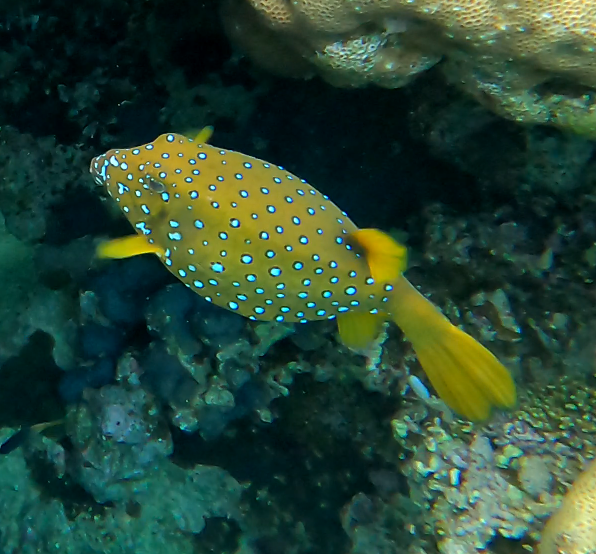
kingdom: Animalia
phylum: Chordata
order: Tetraodontiformes
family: Ostraciidae
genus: Ostracion
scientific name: Ostracion cubicus
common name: Cube trunkfish
